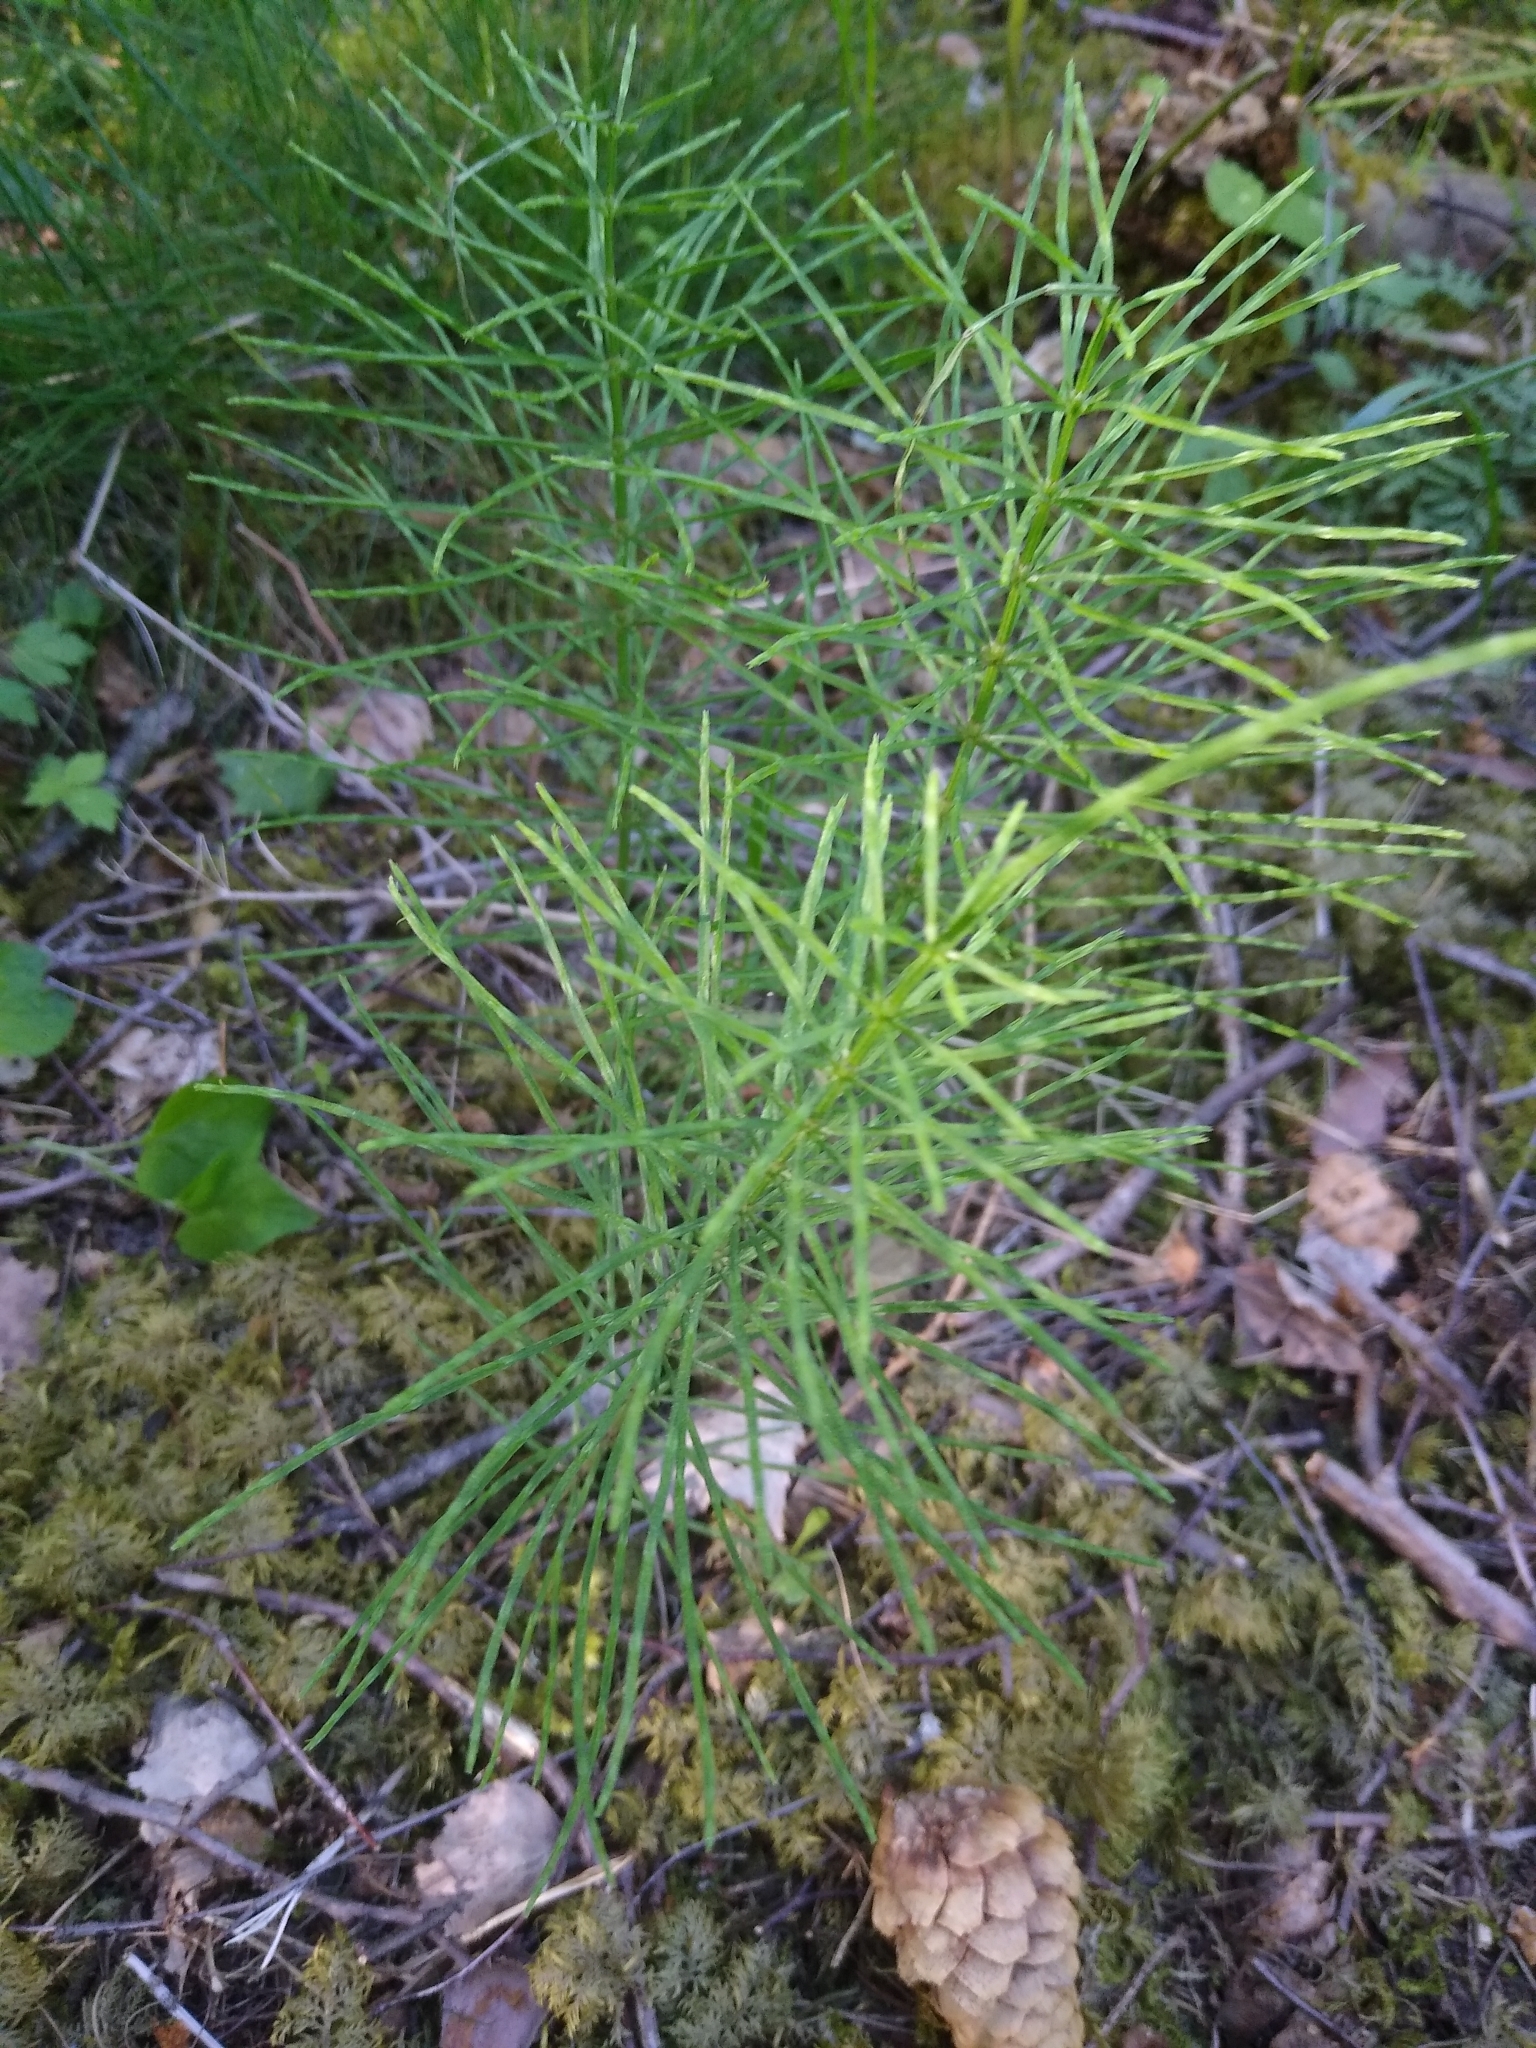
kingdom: Plantae
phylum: Tracheophyta
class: Polypodiopsida
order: Equisetales
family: Equisetaceae
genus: Equisetum
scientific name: Equisetum arvense
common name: Field horsetail
